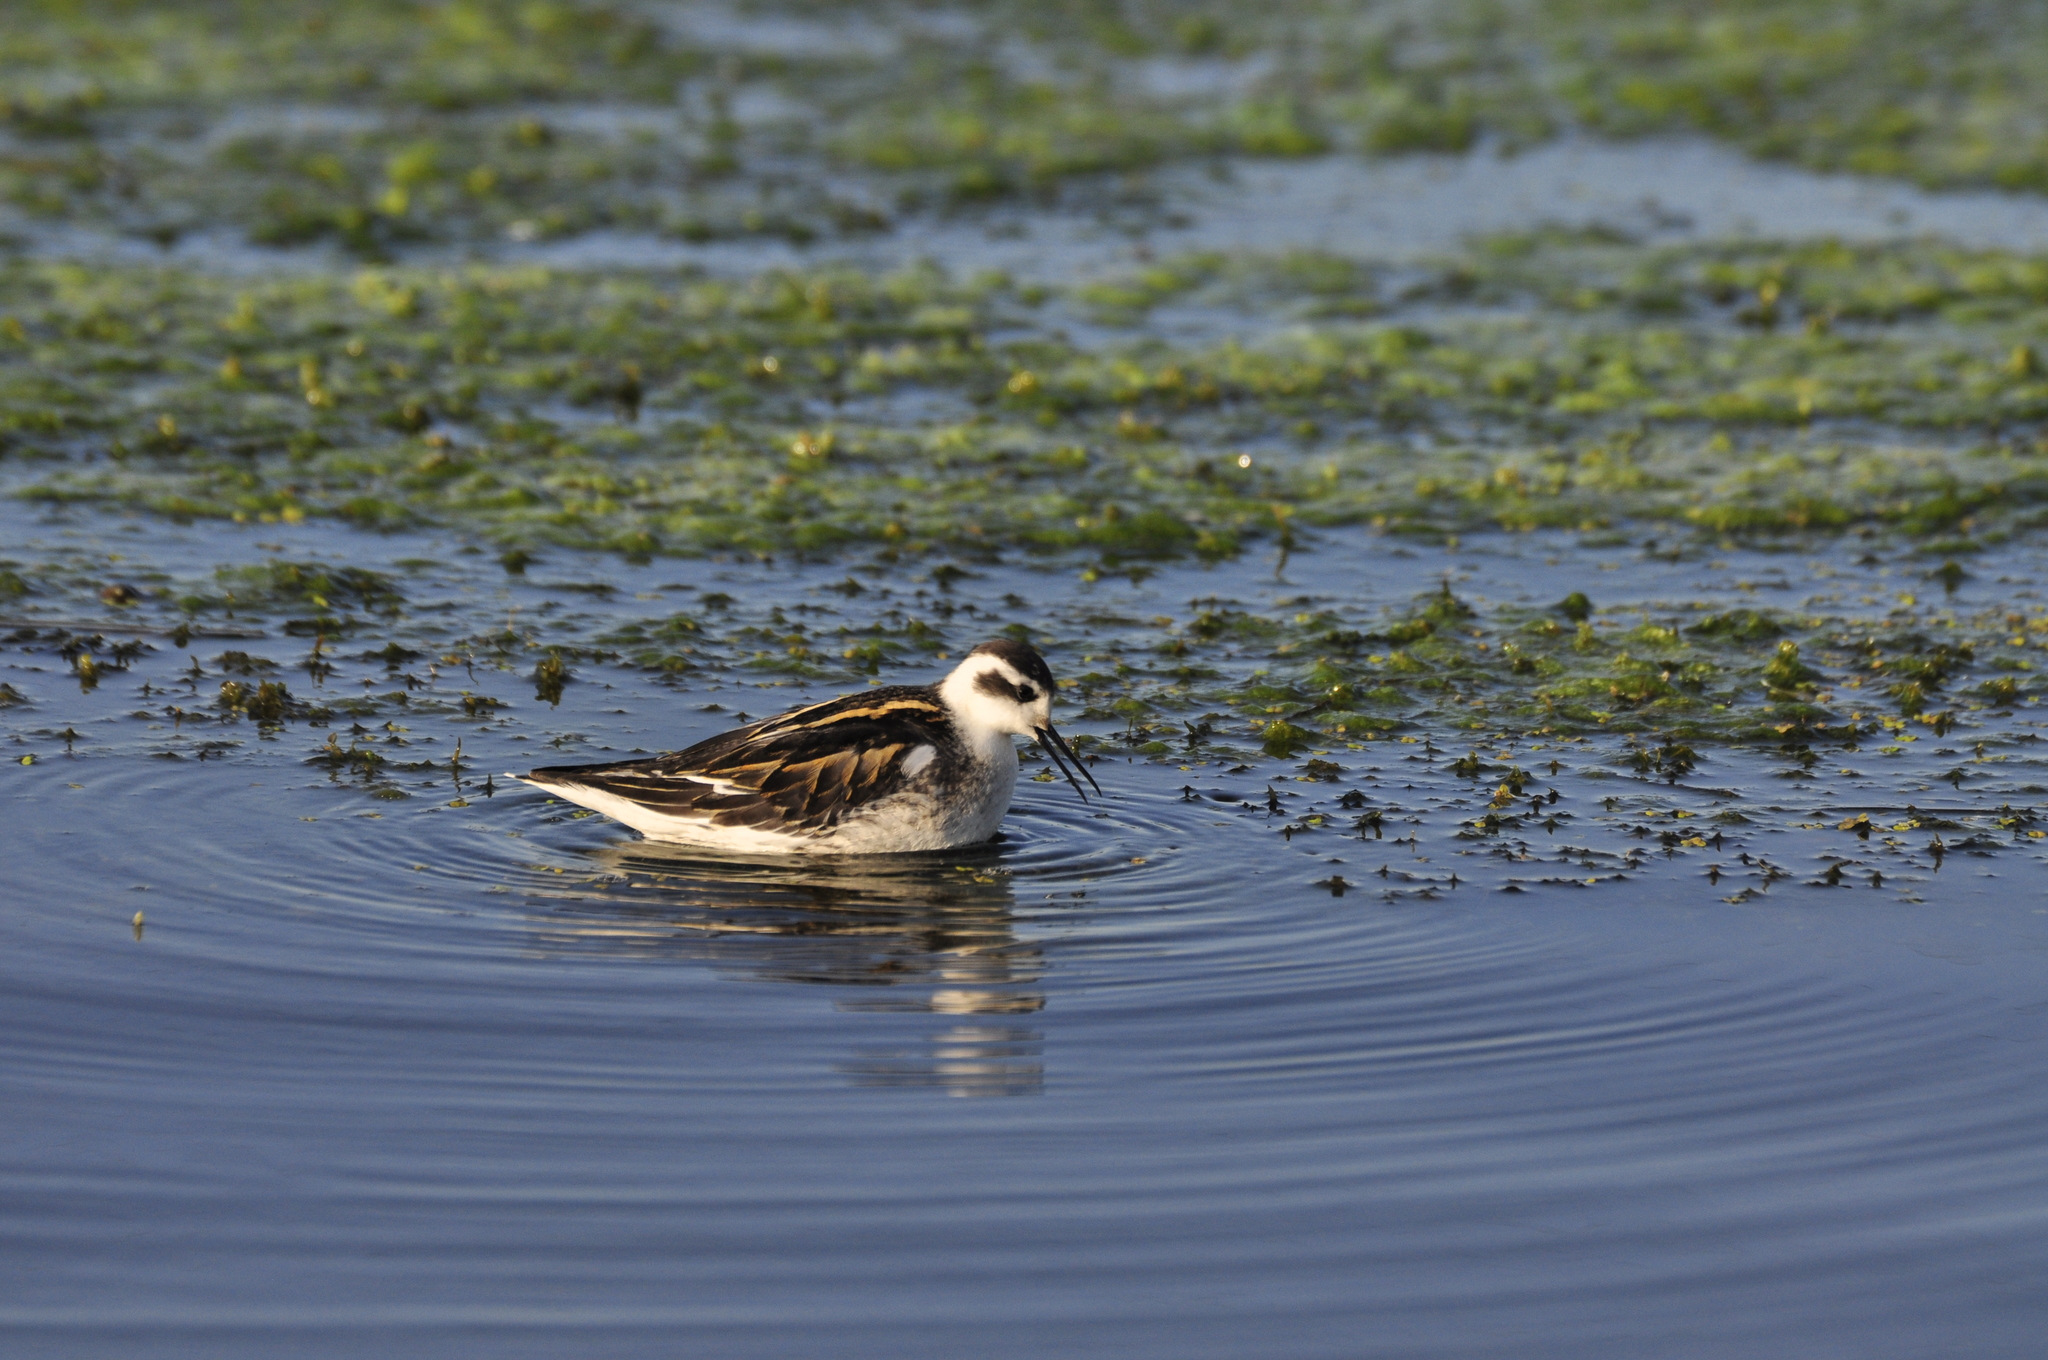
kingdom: Animalia
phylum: Chordata
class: Aves
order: Charadriiformes
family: Scolopacidae
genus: Phalaropus
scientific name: Phalaropus lobatus
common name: Red-necked phalarope
